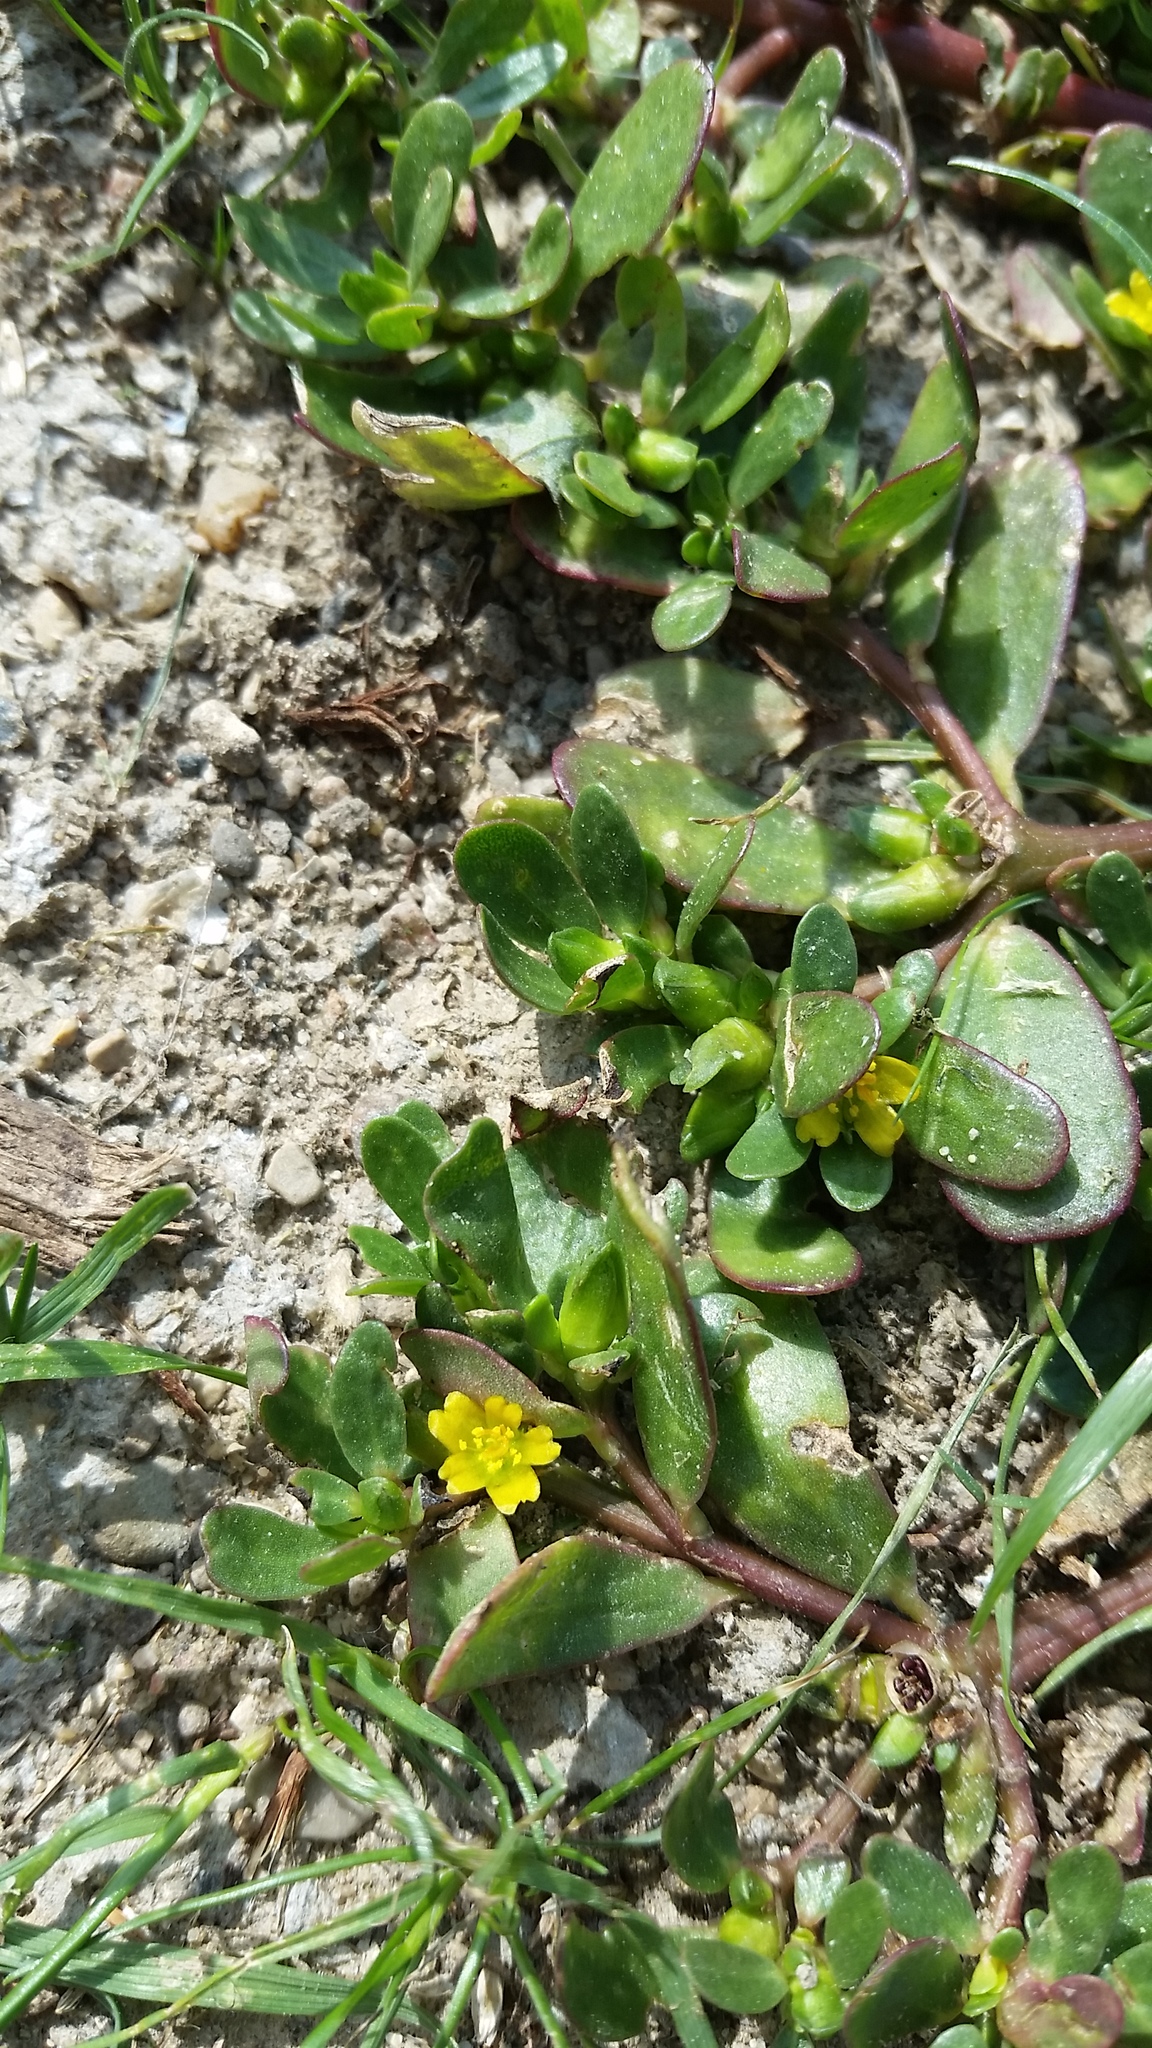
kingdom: Plantae
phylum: Tracheophyta
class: Magnoliopsida
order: Caryophyllales
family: Portulacaceae
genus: Portulaca
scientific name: Portulaca oleracea
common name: Common purslane
